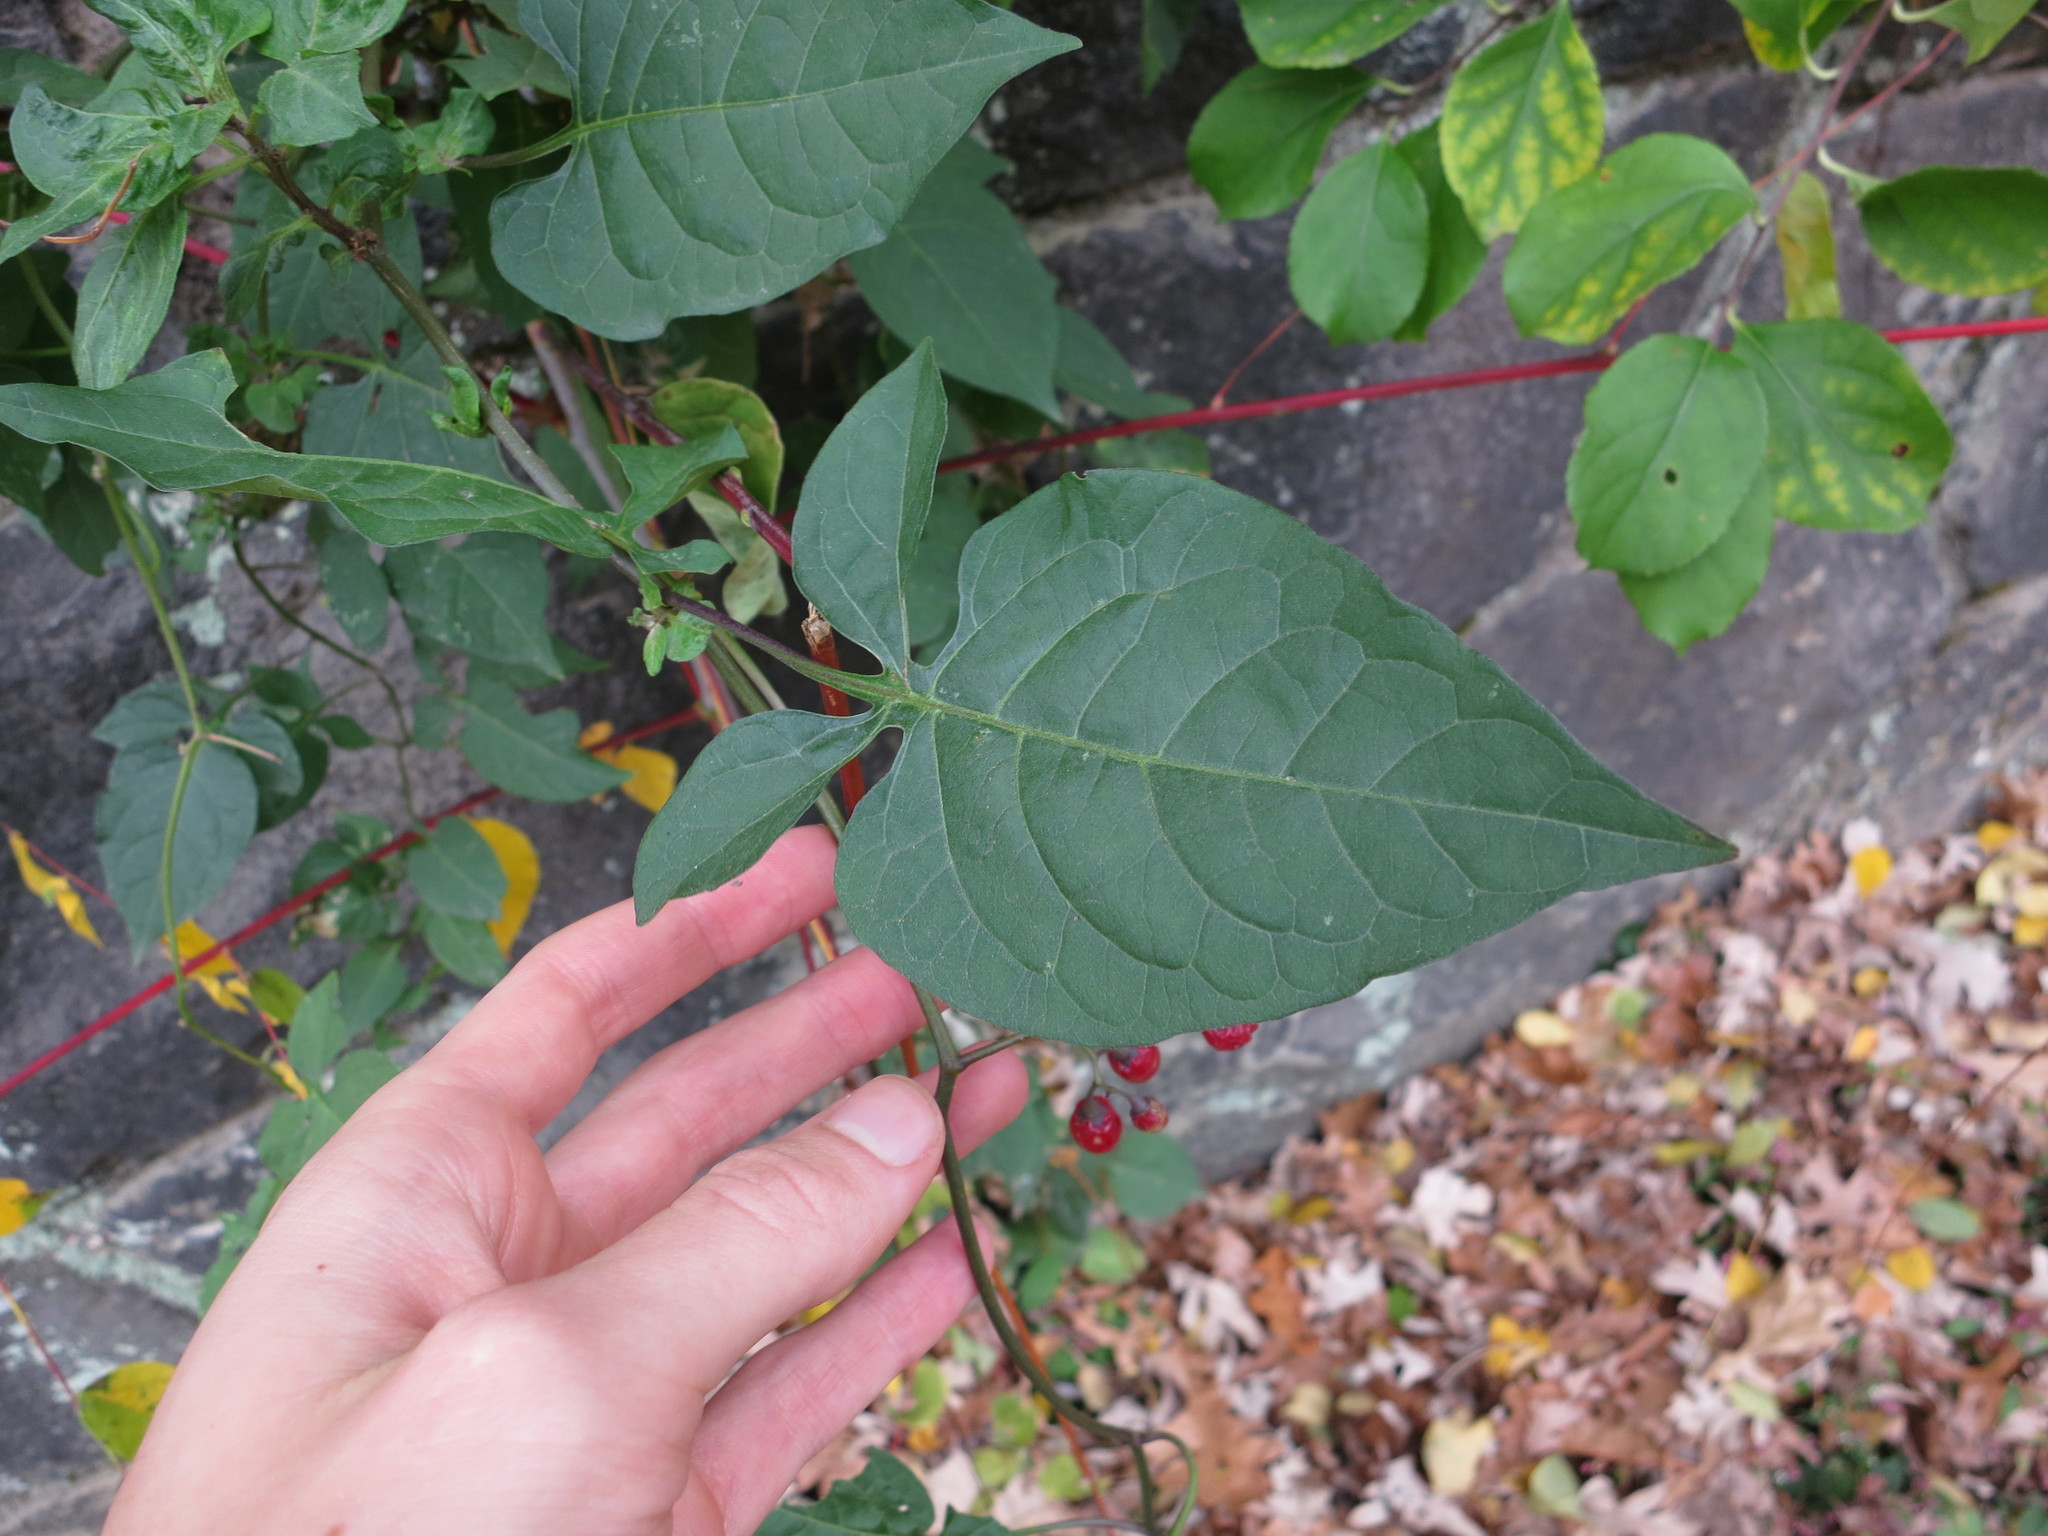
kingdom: Plantae
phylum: Tracheophyta
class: Magnoliopsida
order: Solanales
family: Solanaceae
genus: Solanum
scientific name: Solanum dulcamara
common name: Climbing nightshade
